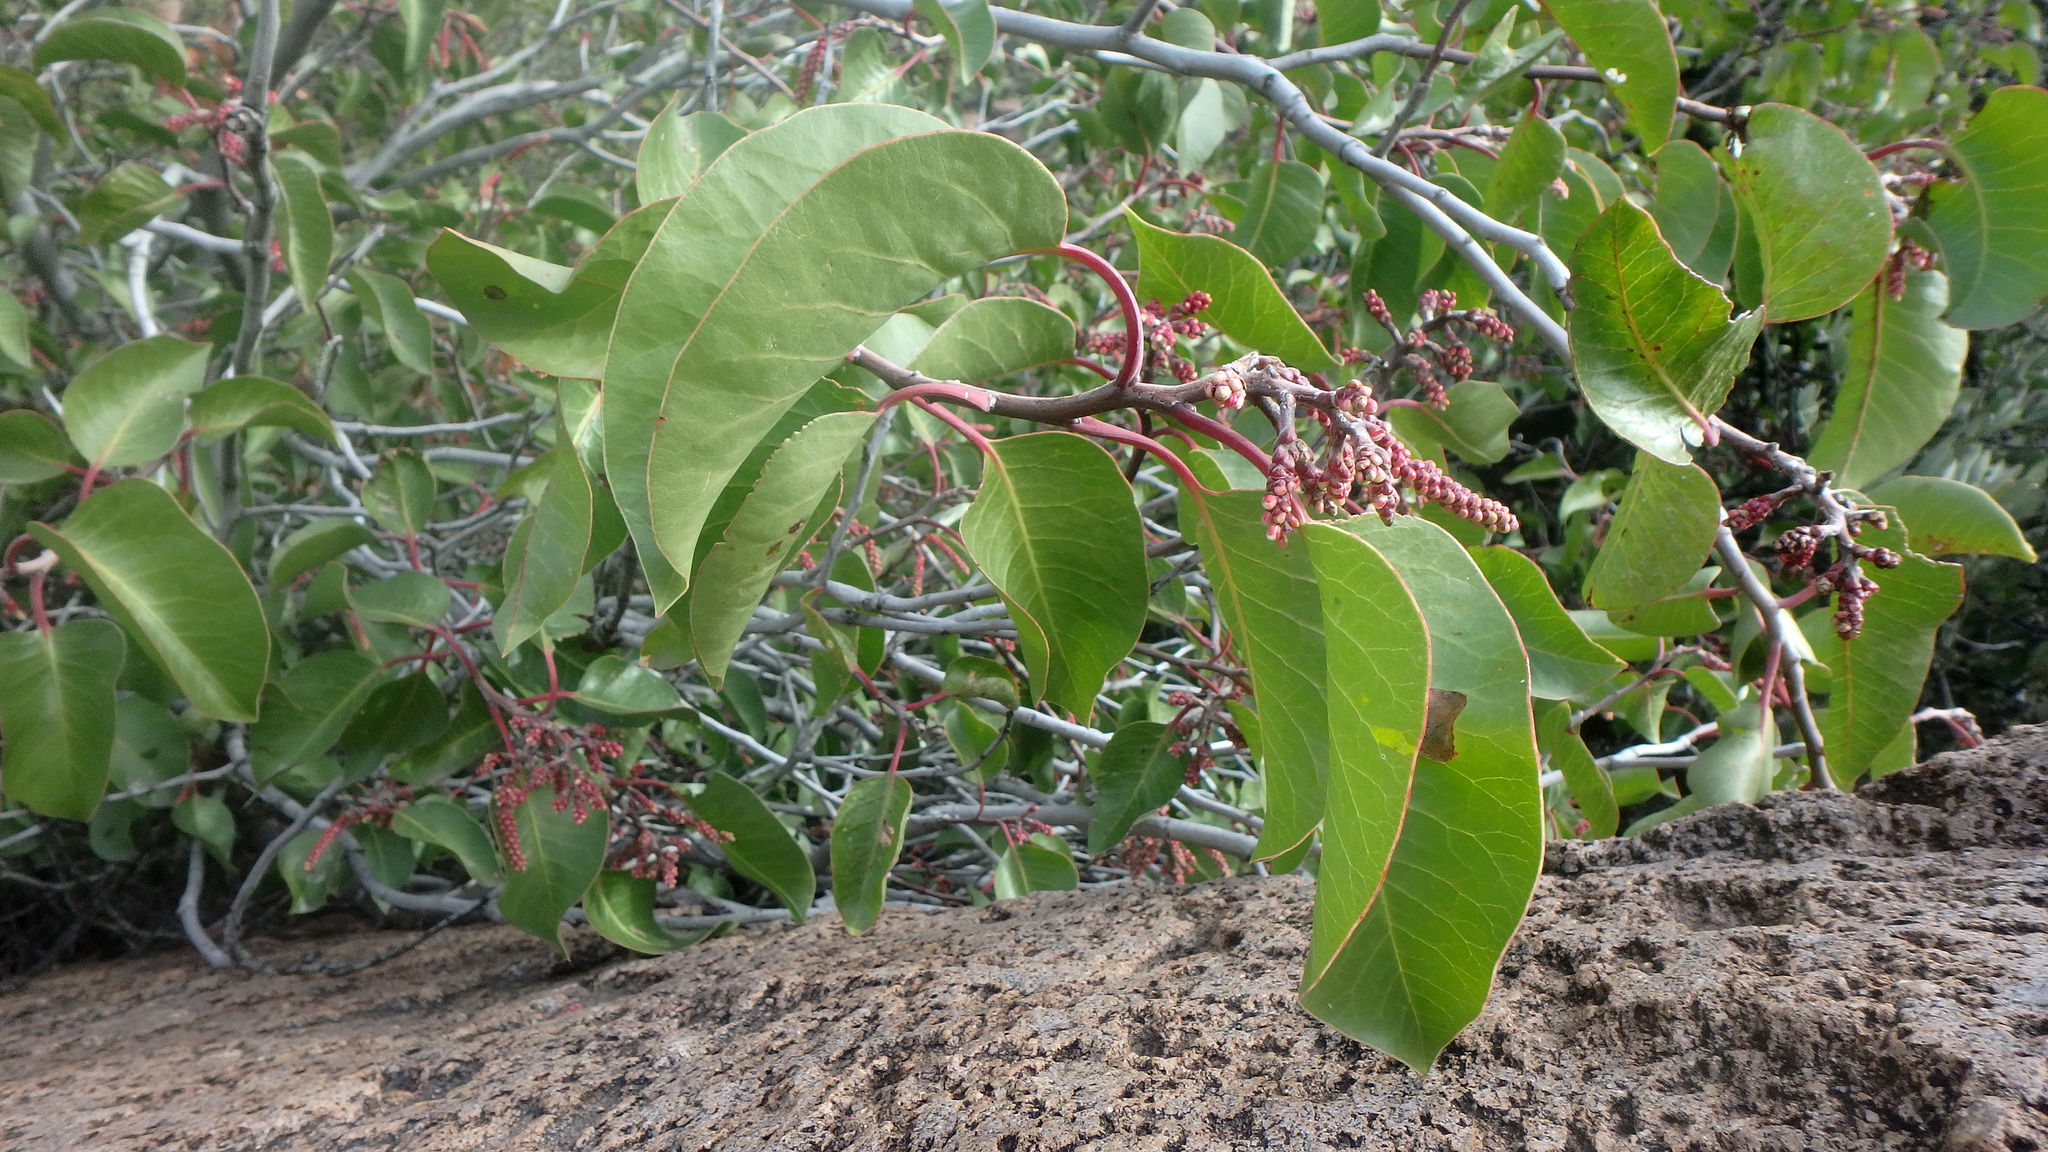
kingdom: Plantae
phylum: Tracheophyta
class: Magnoliopsida
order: Sapindales
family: Anacardiaceae
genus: Rhus
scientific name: Rhus ovata
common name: Sugar sumac
